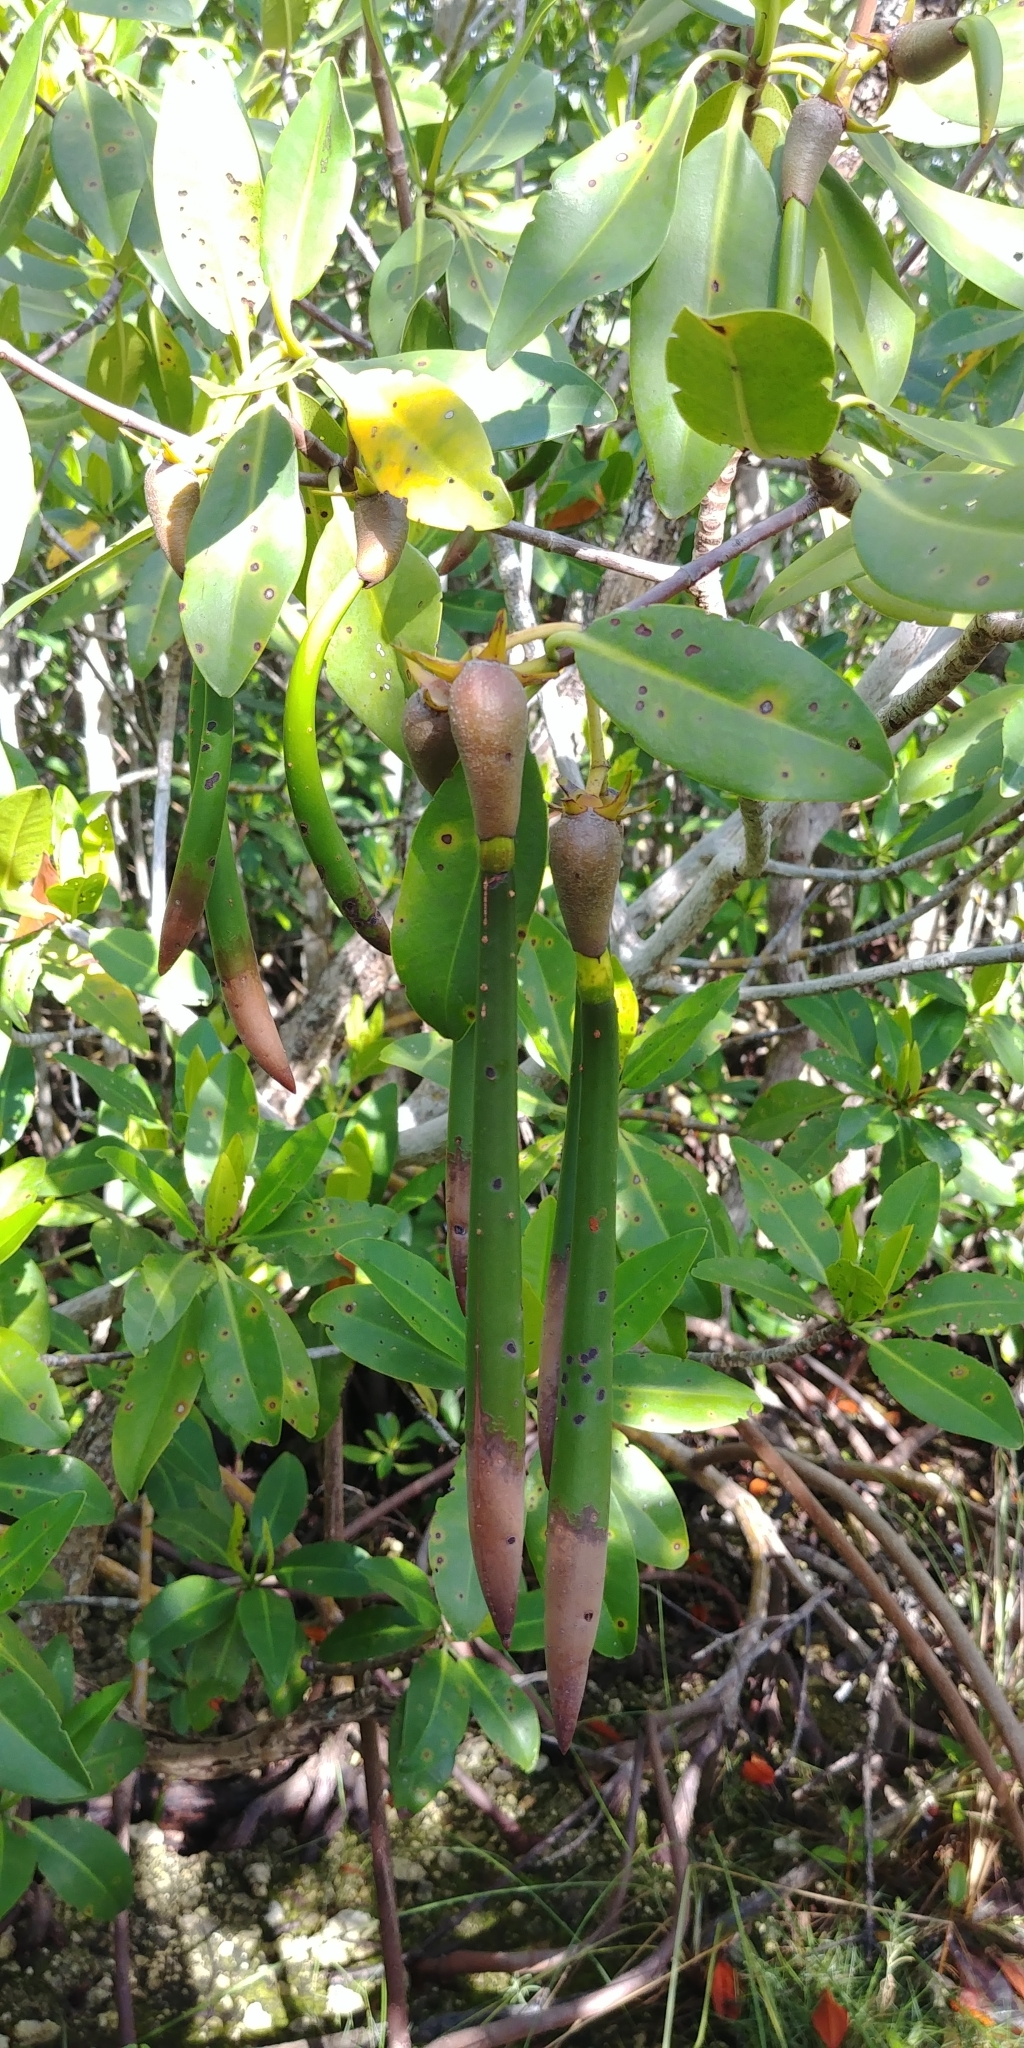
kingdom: Plantae
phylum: Tracheophyta
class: Magnoliopsida
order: Malpighiales
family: Rhizophoraceae
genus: Rhizophora
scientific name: Rhizophora mangle
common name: Red mangrove
